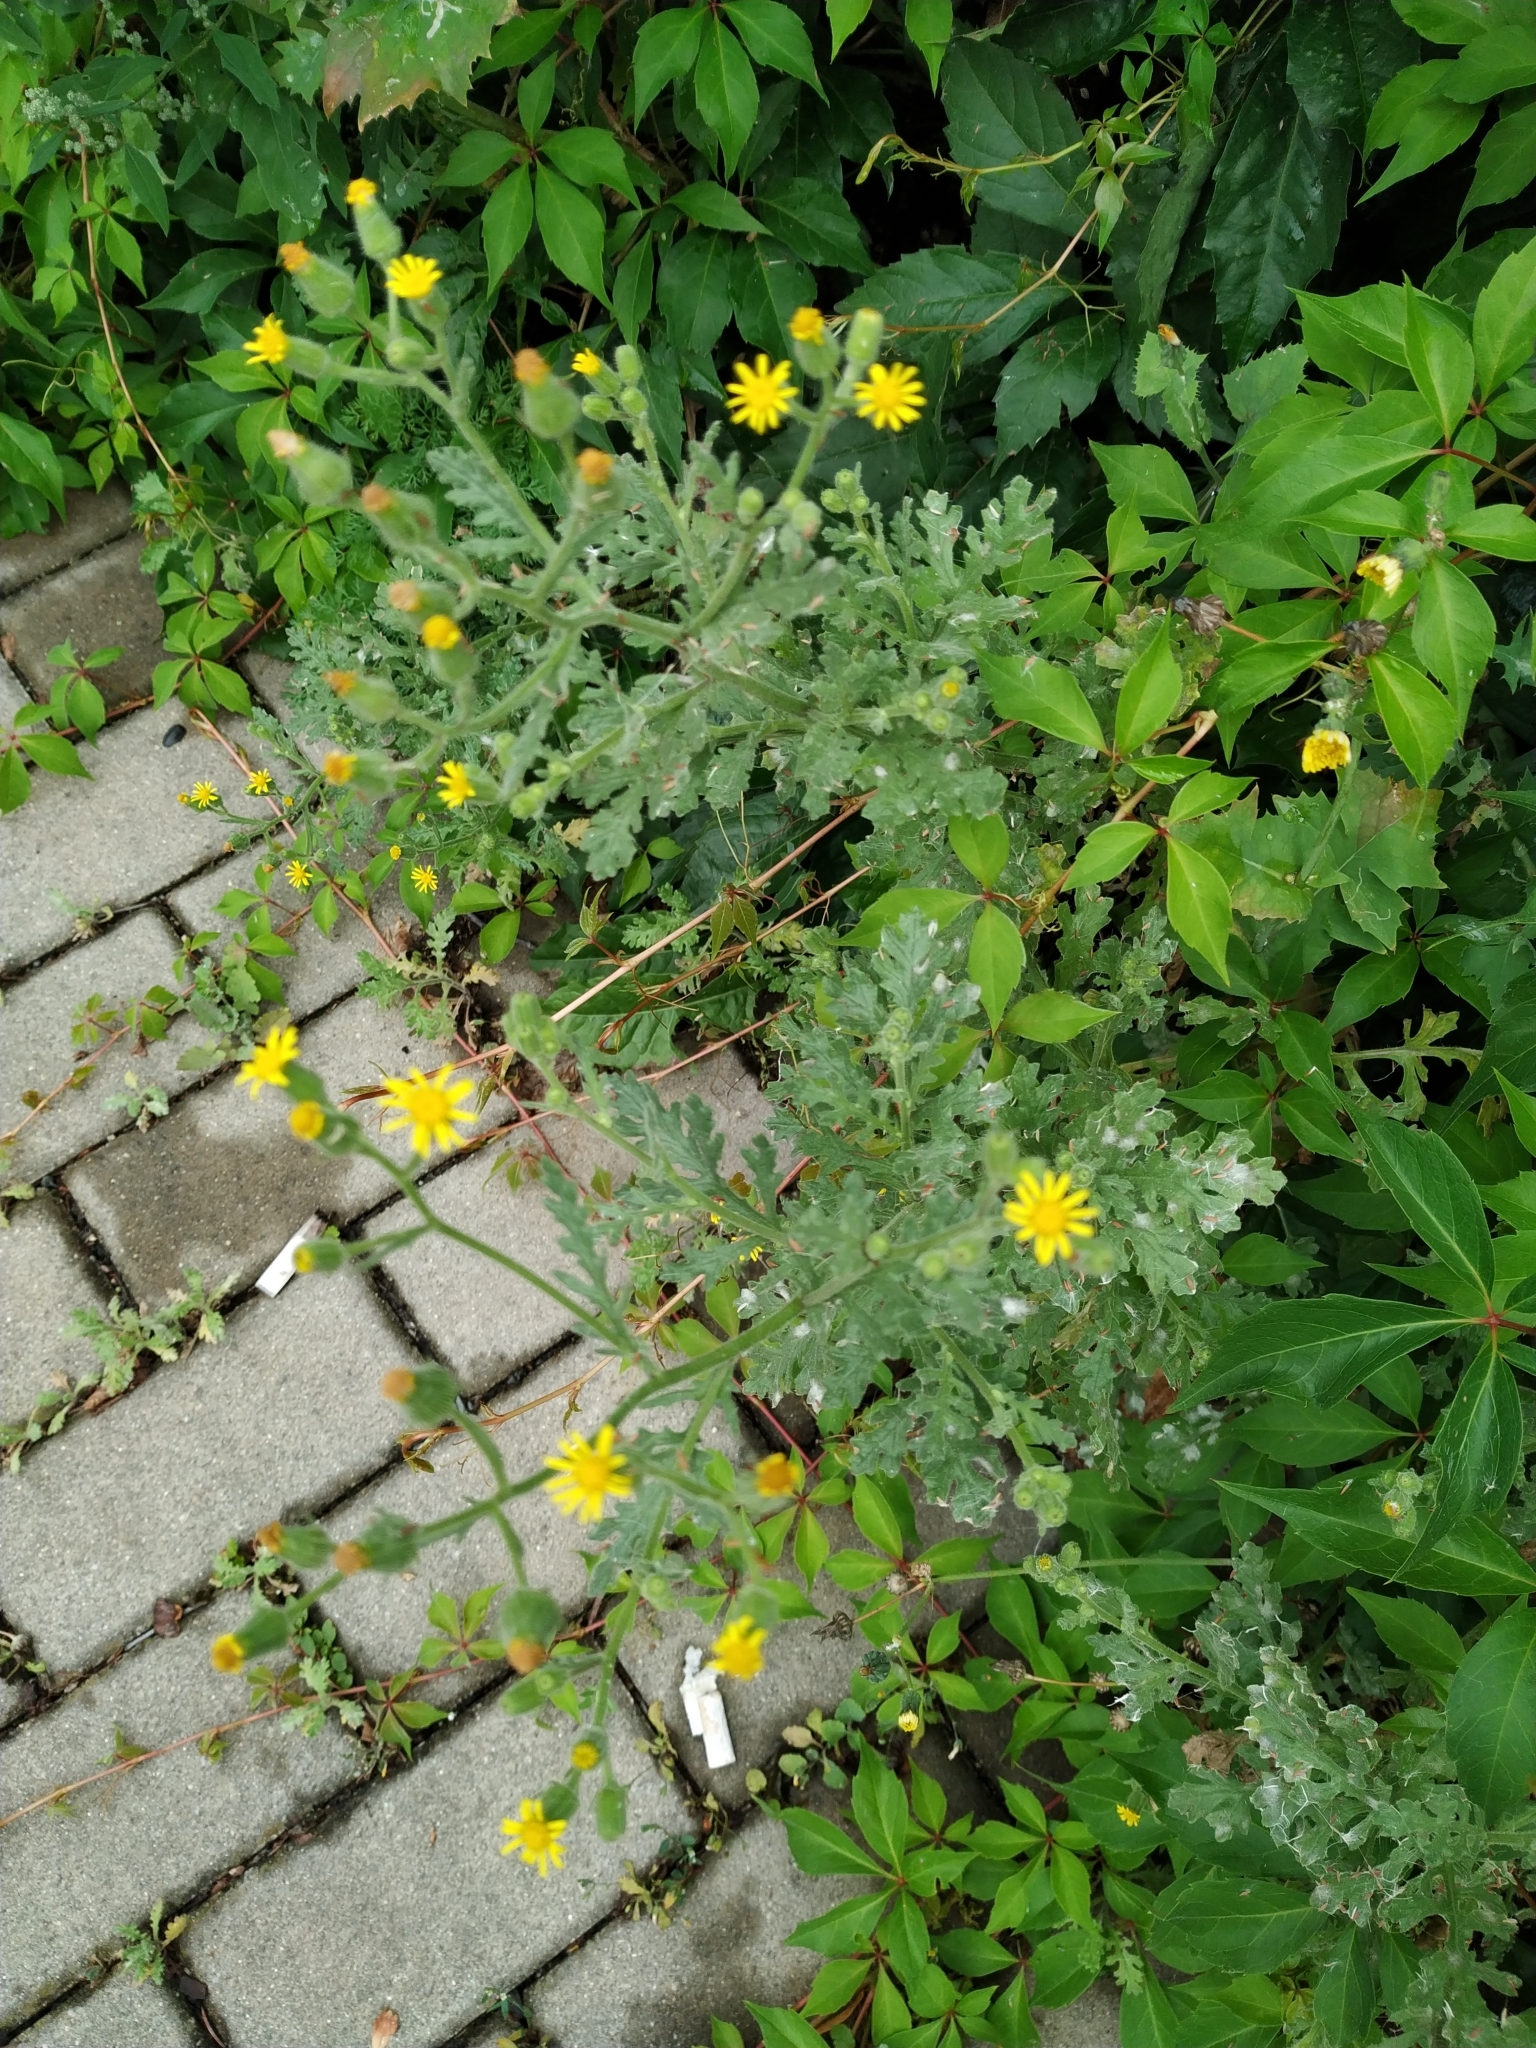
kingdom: Plantae
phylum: Tracheophyta
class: Magnoliopsida
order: Asterales
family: Asteraceae
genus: Senecio
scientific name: Senecio viscosus
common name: Sticky groundsel
